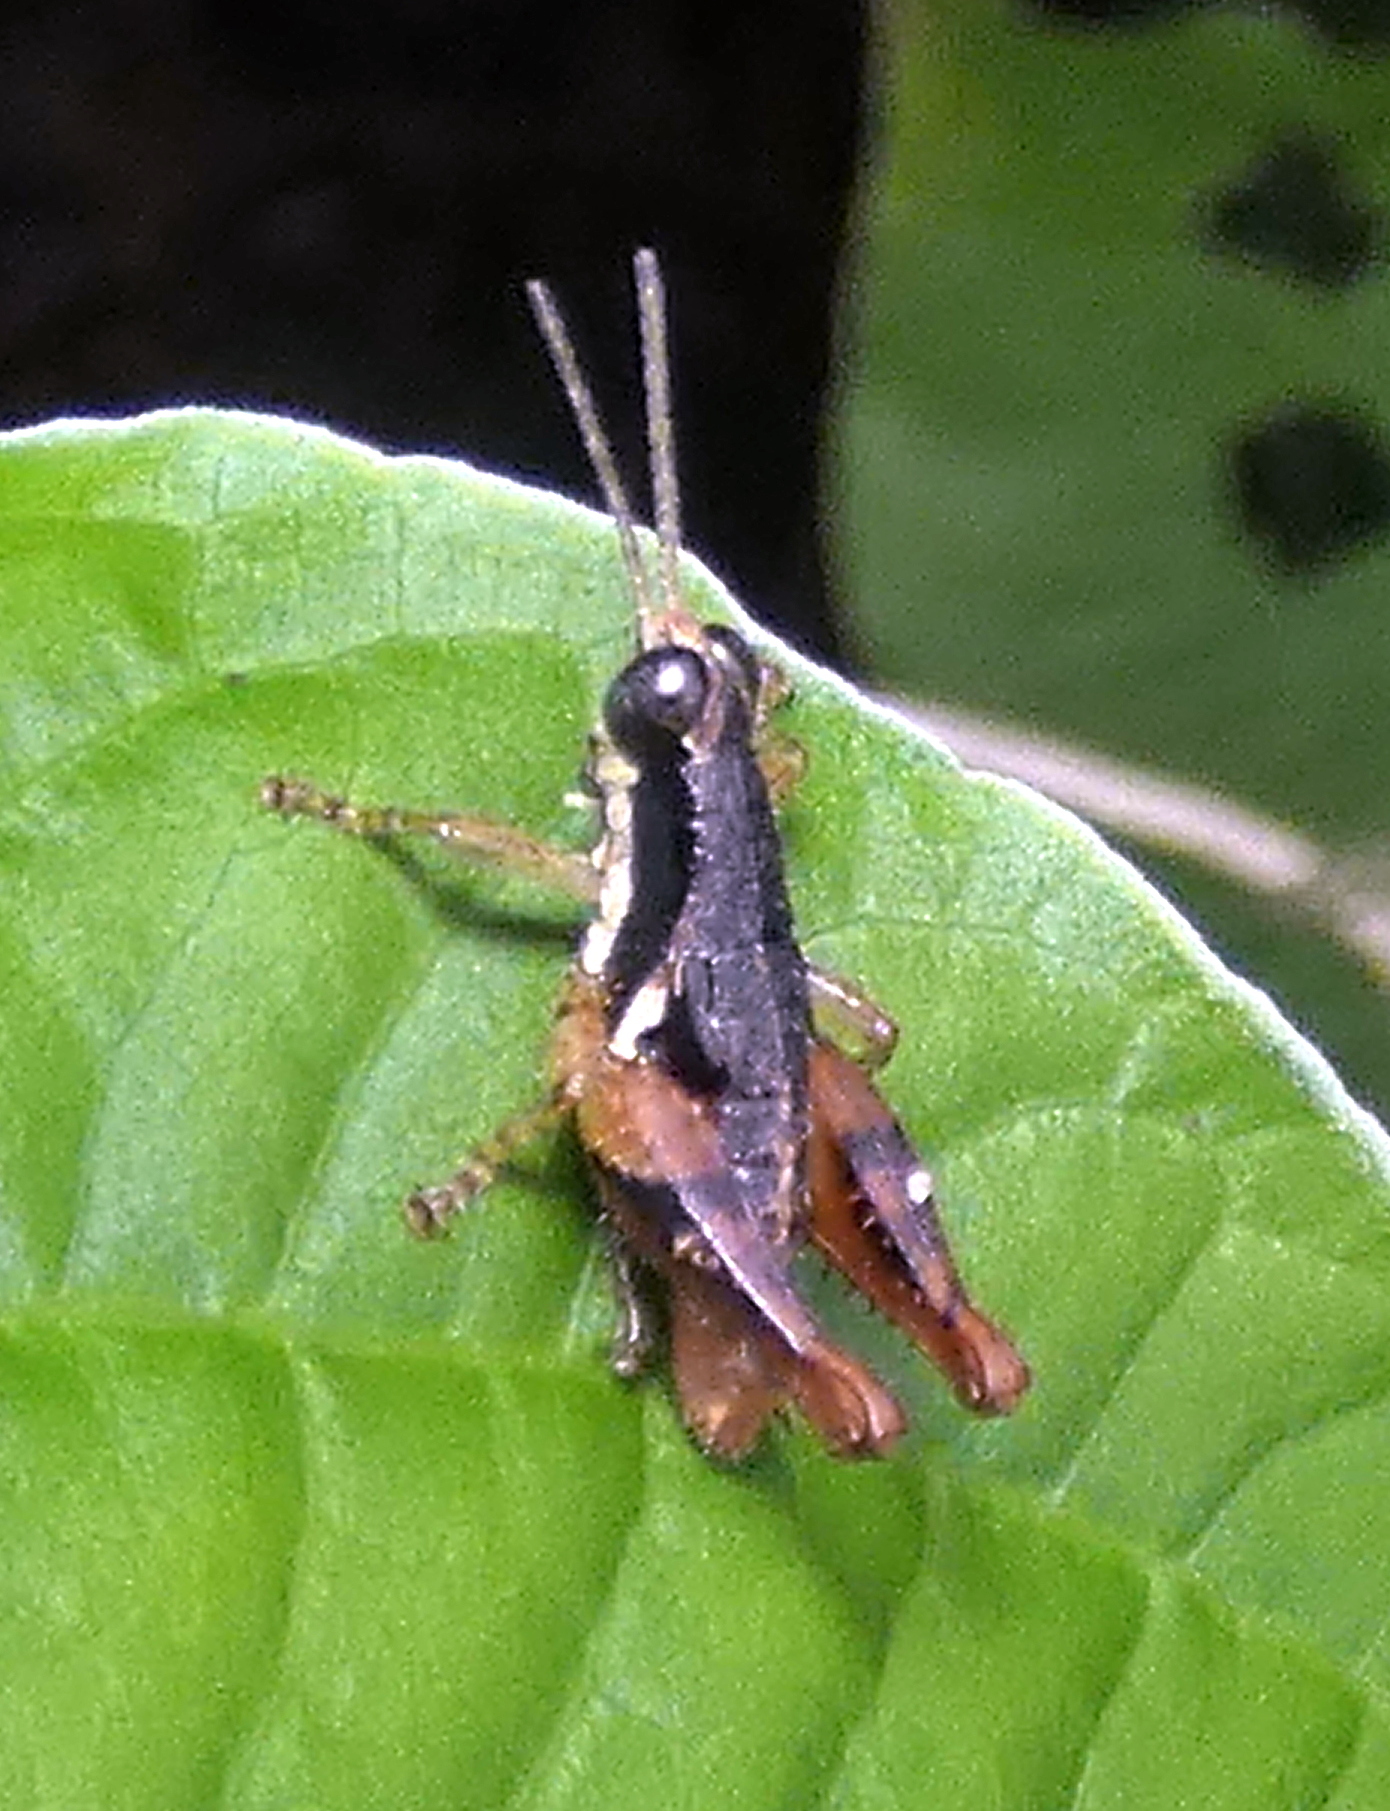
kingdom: Animalia
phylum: Arthropoda
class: Insecta
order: Orthoptera
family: Acrididae
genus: Eujivarus
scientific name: Eujivarus meridionalis
